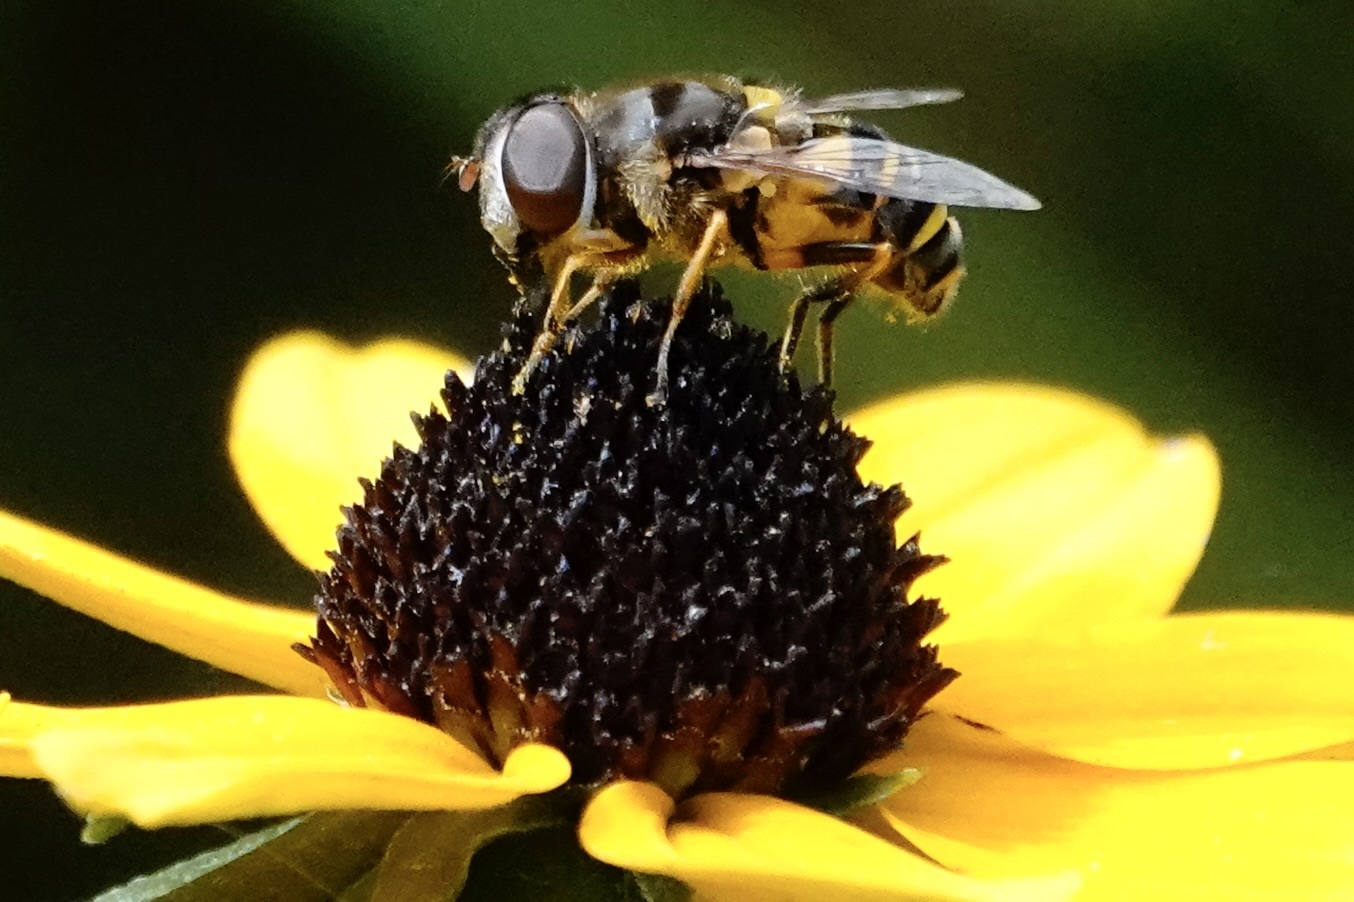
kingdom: Animalia
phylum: Arthropoda
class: Insecta
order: Diptera
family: Syrphidae
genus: Eristalis
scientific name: Eristalis transversa
